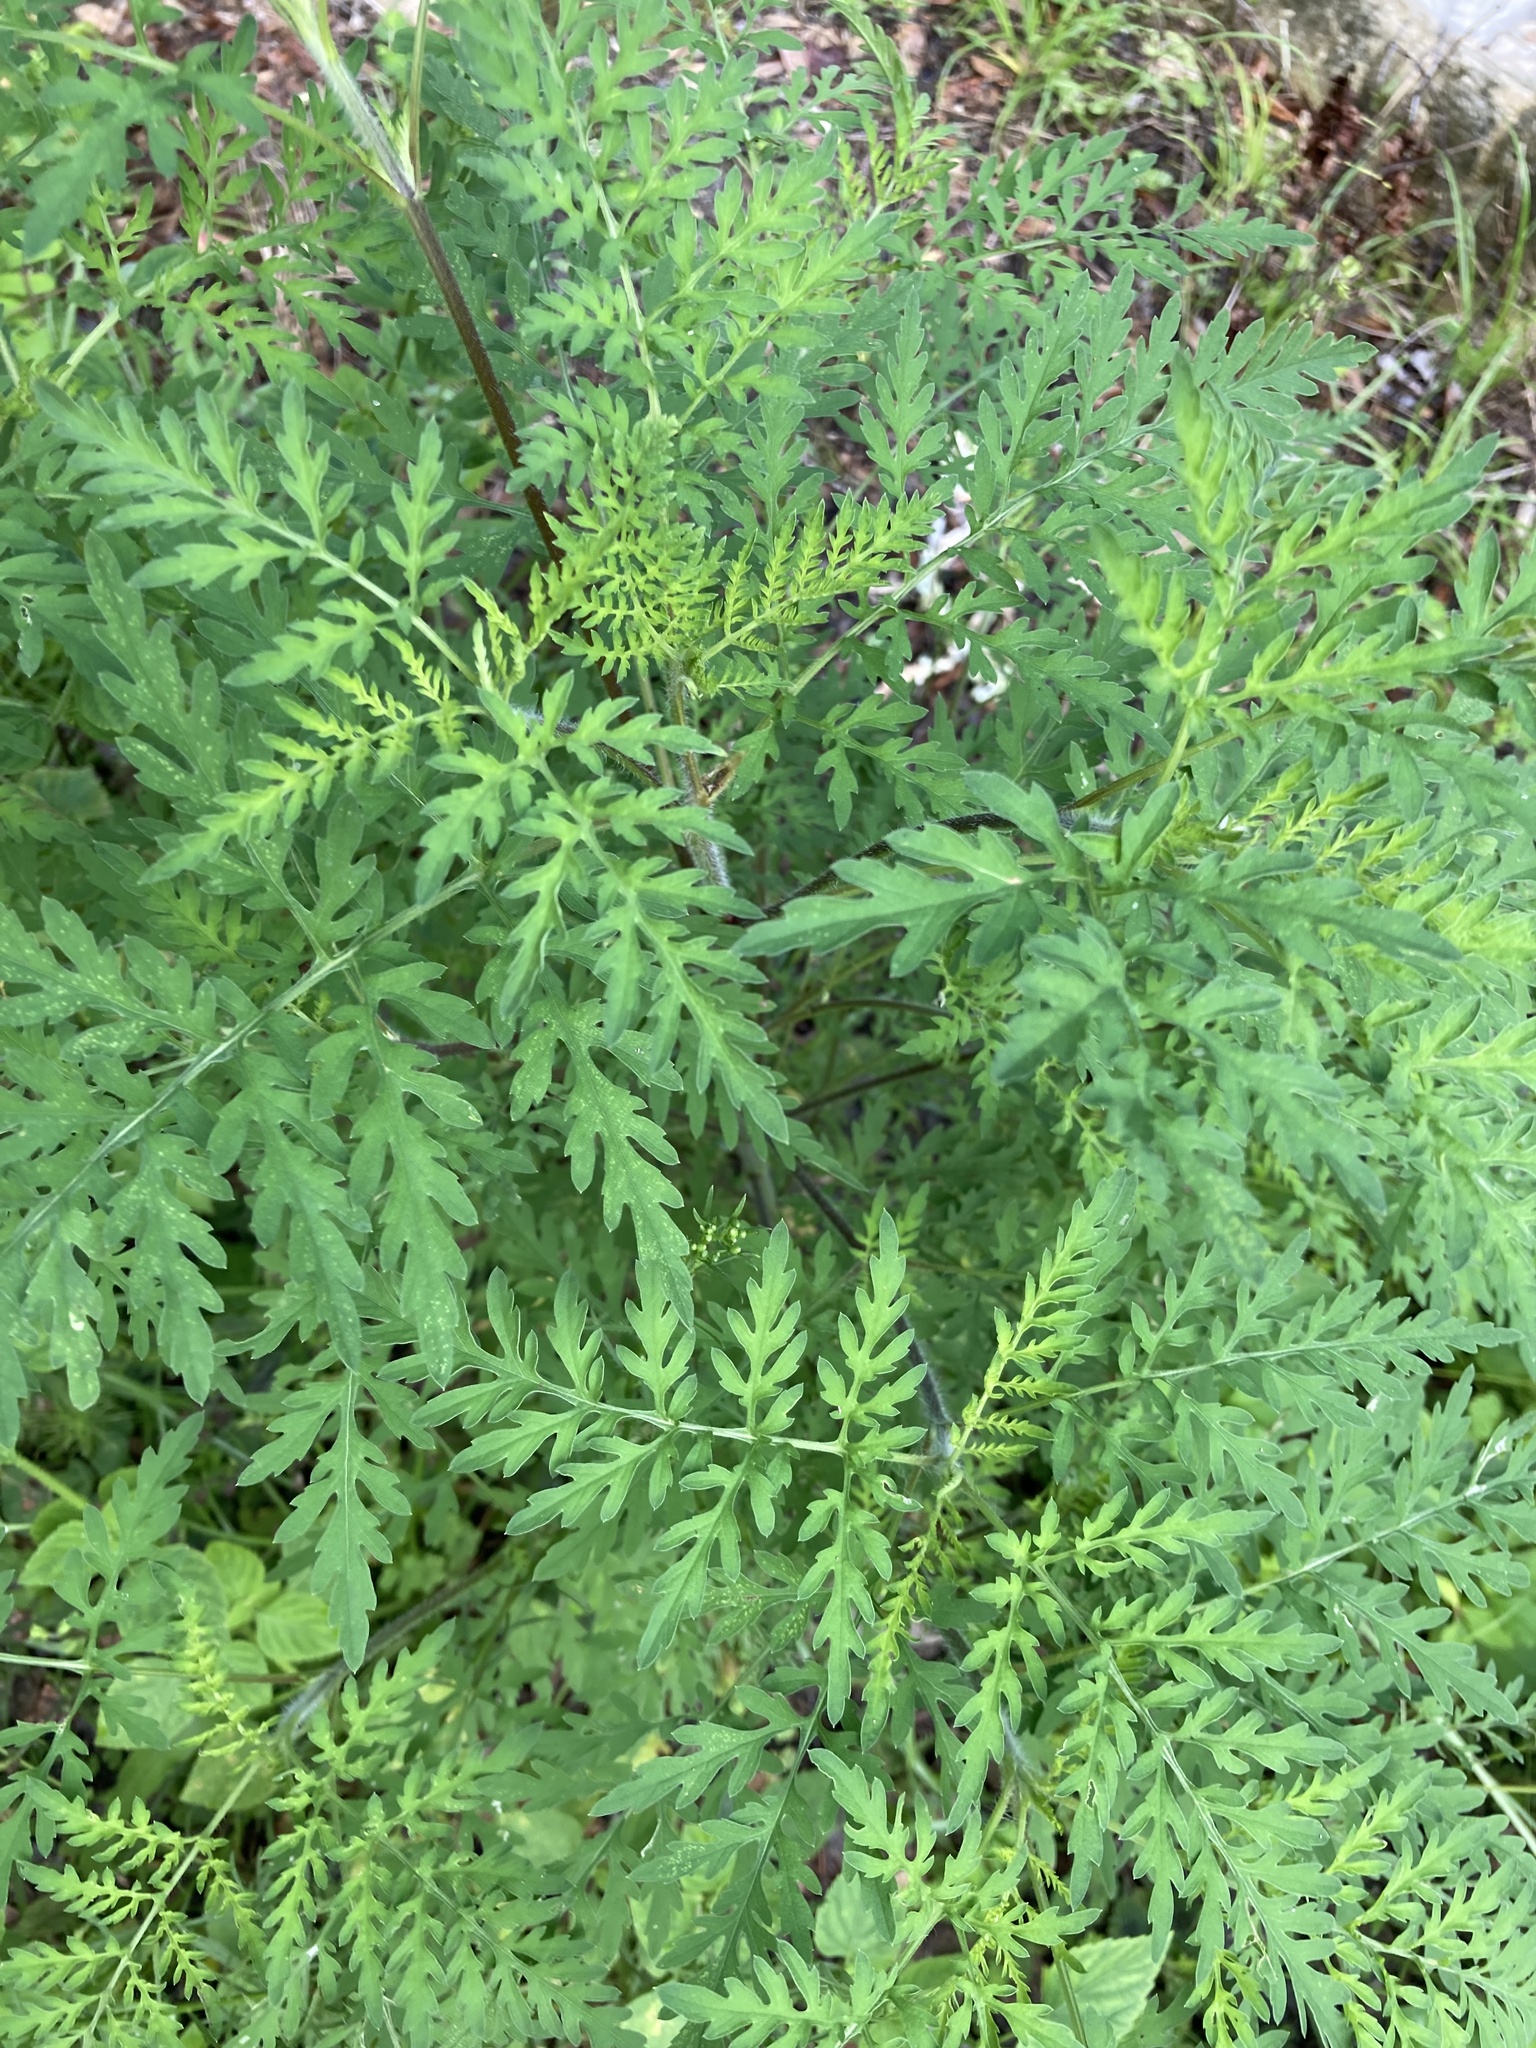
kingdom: Plantae
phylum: Tracheophyta
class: Magnoliopsida
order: Asterales
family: Asteraceae
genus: Ambrosia
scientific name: Ambrosia artemisiifolia
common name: Annual ragweed
